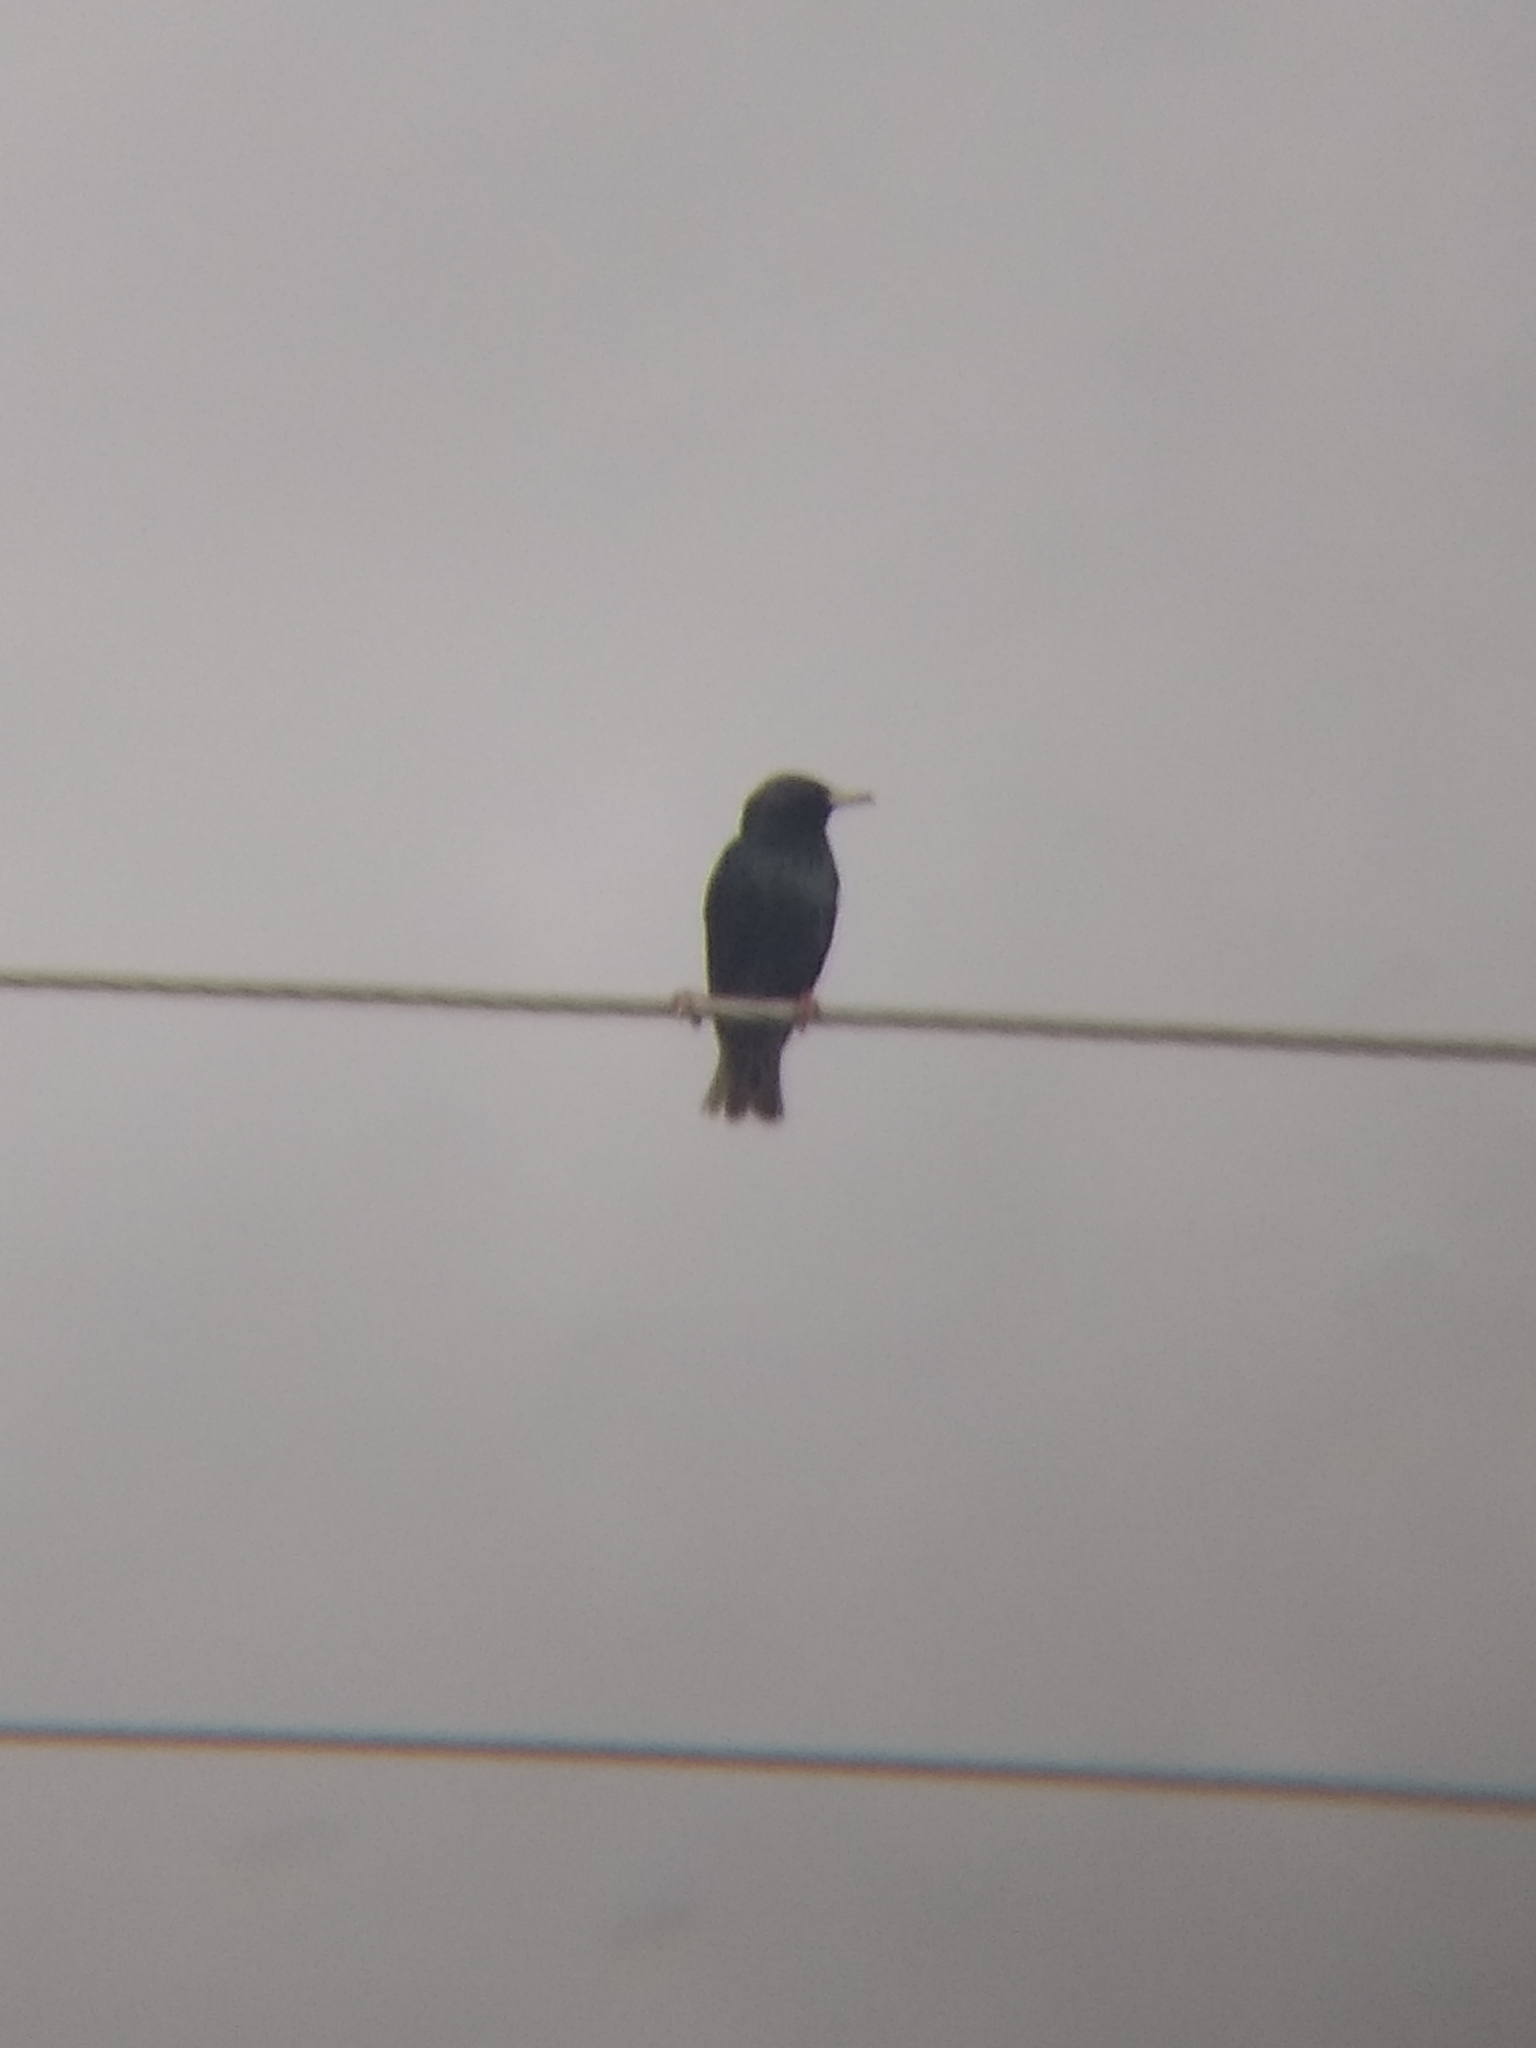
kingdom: Animalia
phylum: Chordata
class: Aves
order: Passeriformes
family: Sturnidae
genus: Sturnus
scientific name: Sturnus vulgaris
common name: Common starling
